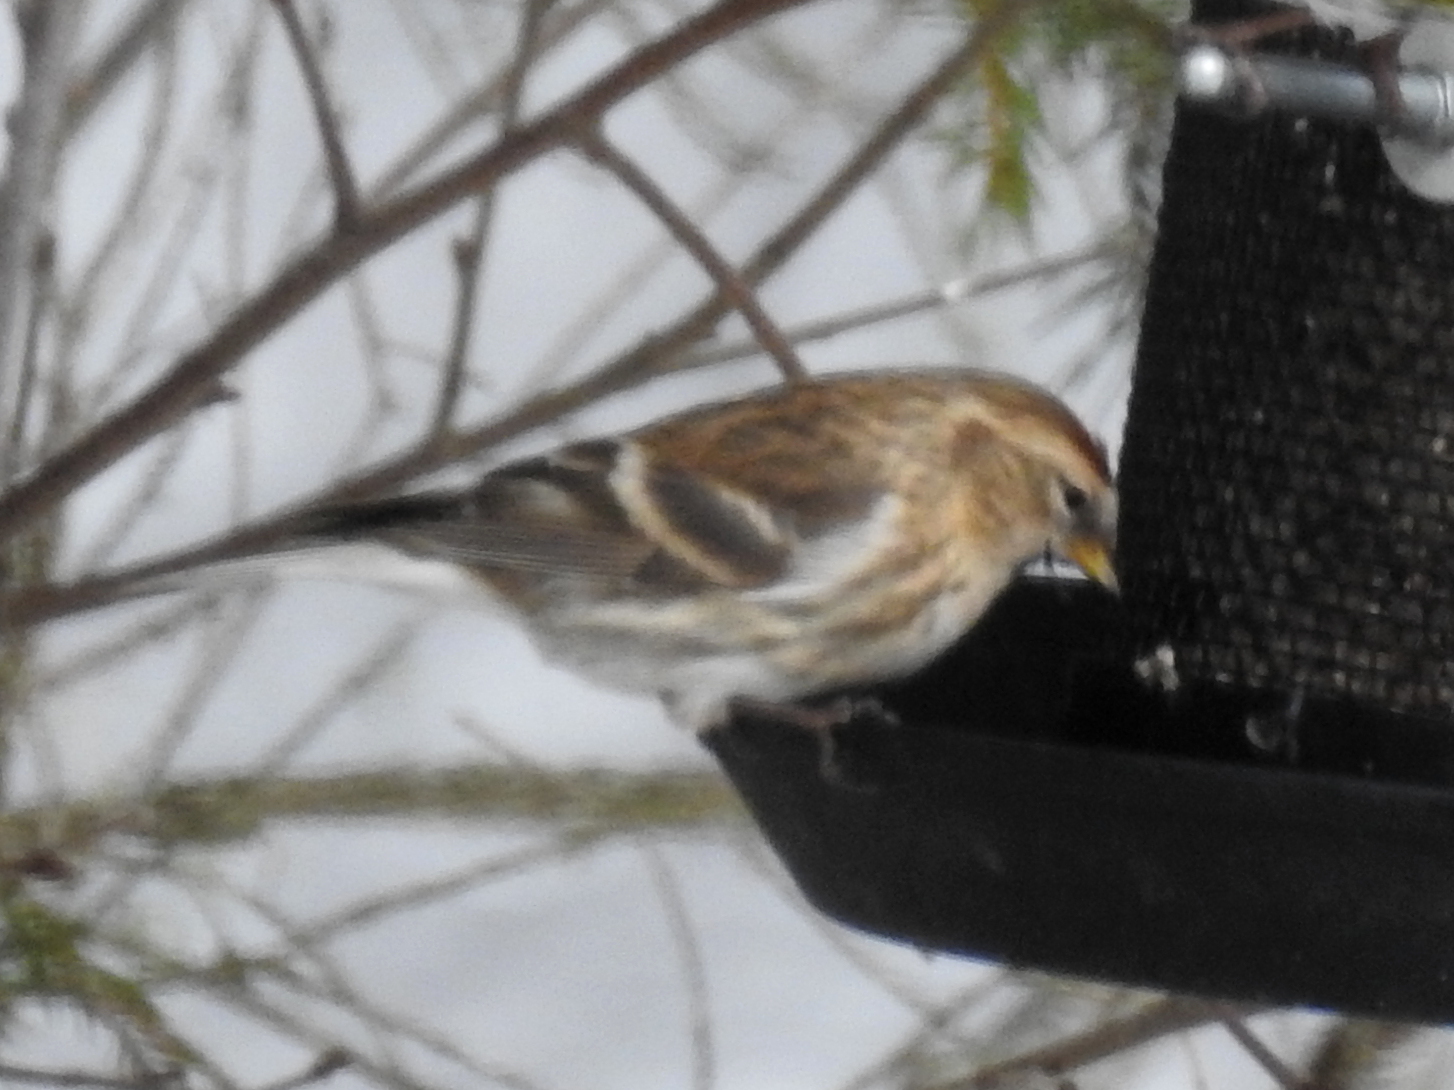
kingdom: Animalia
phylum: Chordata
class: Aves
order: Passeriformes
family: Fringillidae
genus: Acanthis
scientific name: Acanthis flammea
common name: Common redpoll
